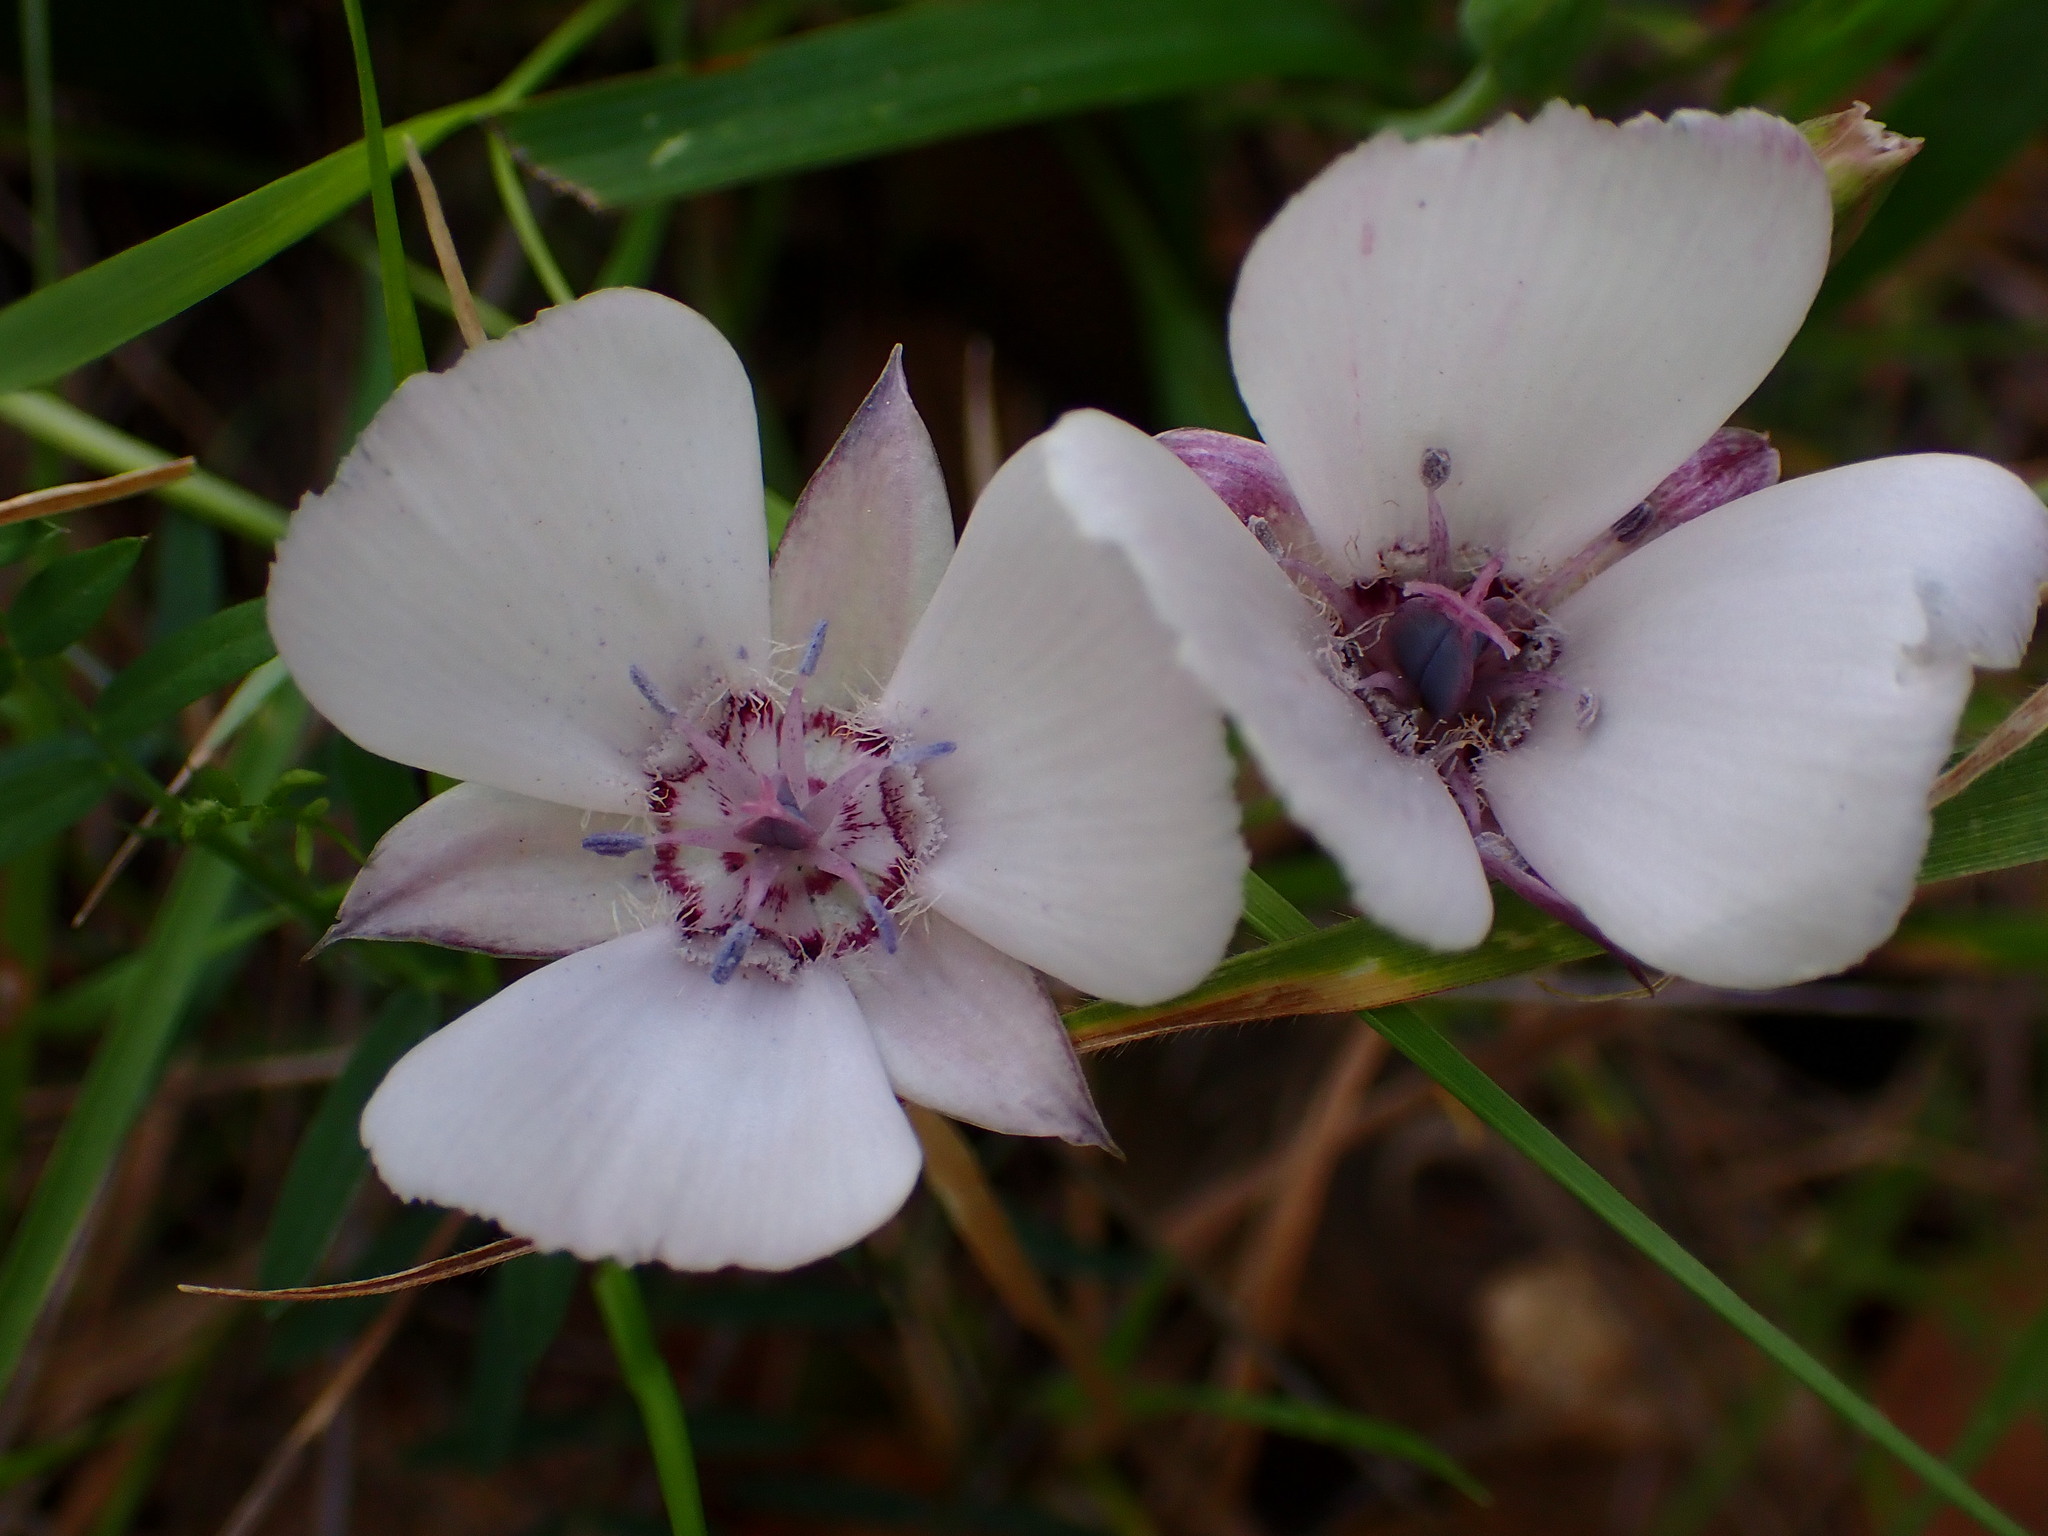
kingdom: Plantae
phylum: Tracheophyta
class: Liliopsida
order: Liliales
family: Liliaceae
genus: Calochortus
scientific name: Calochortus umbellatus
